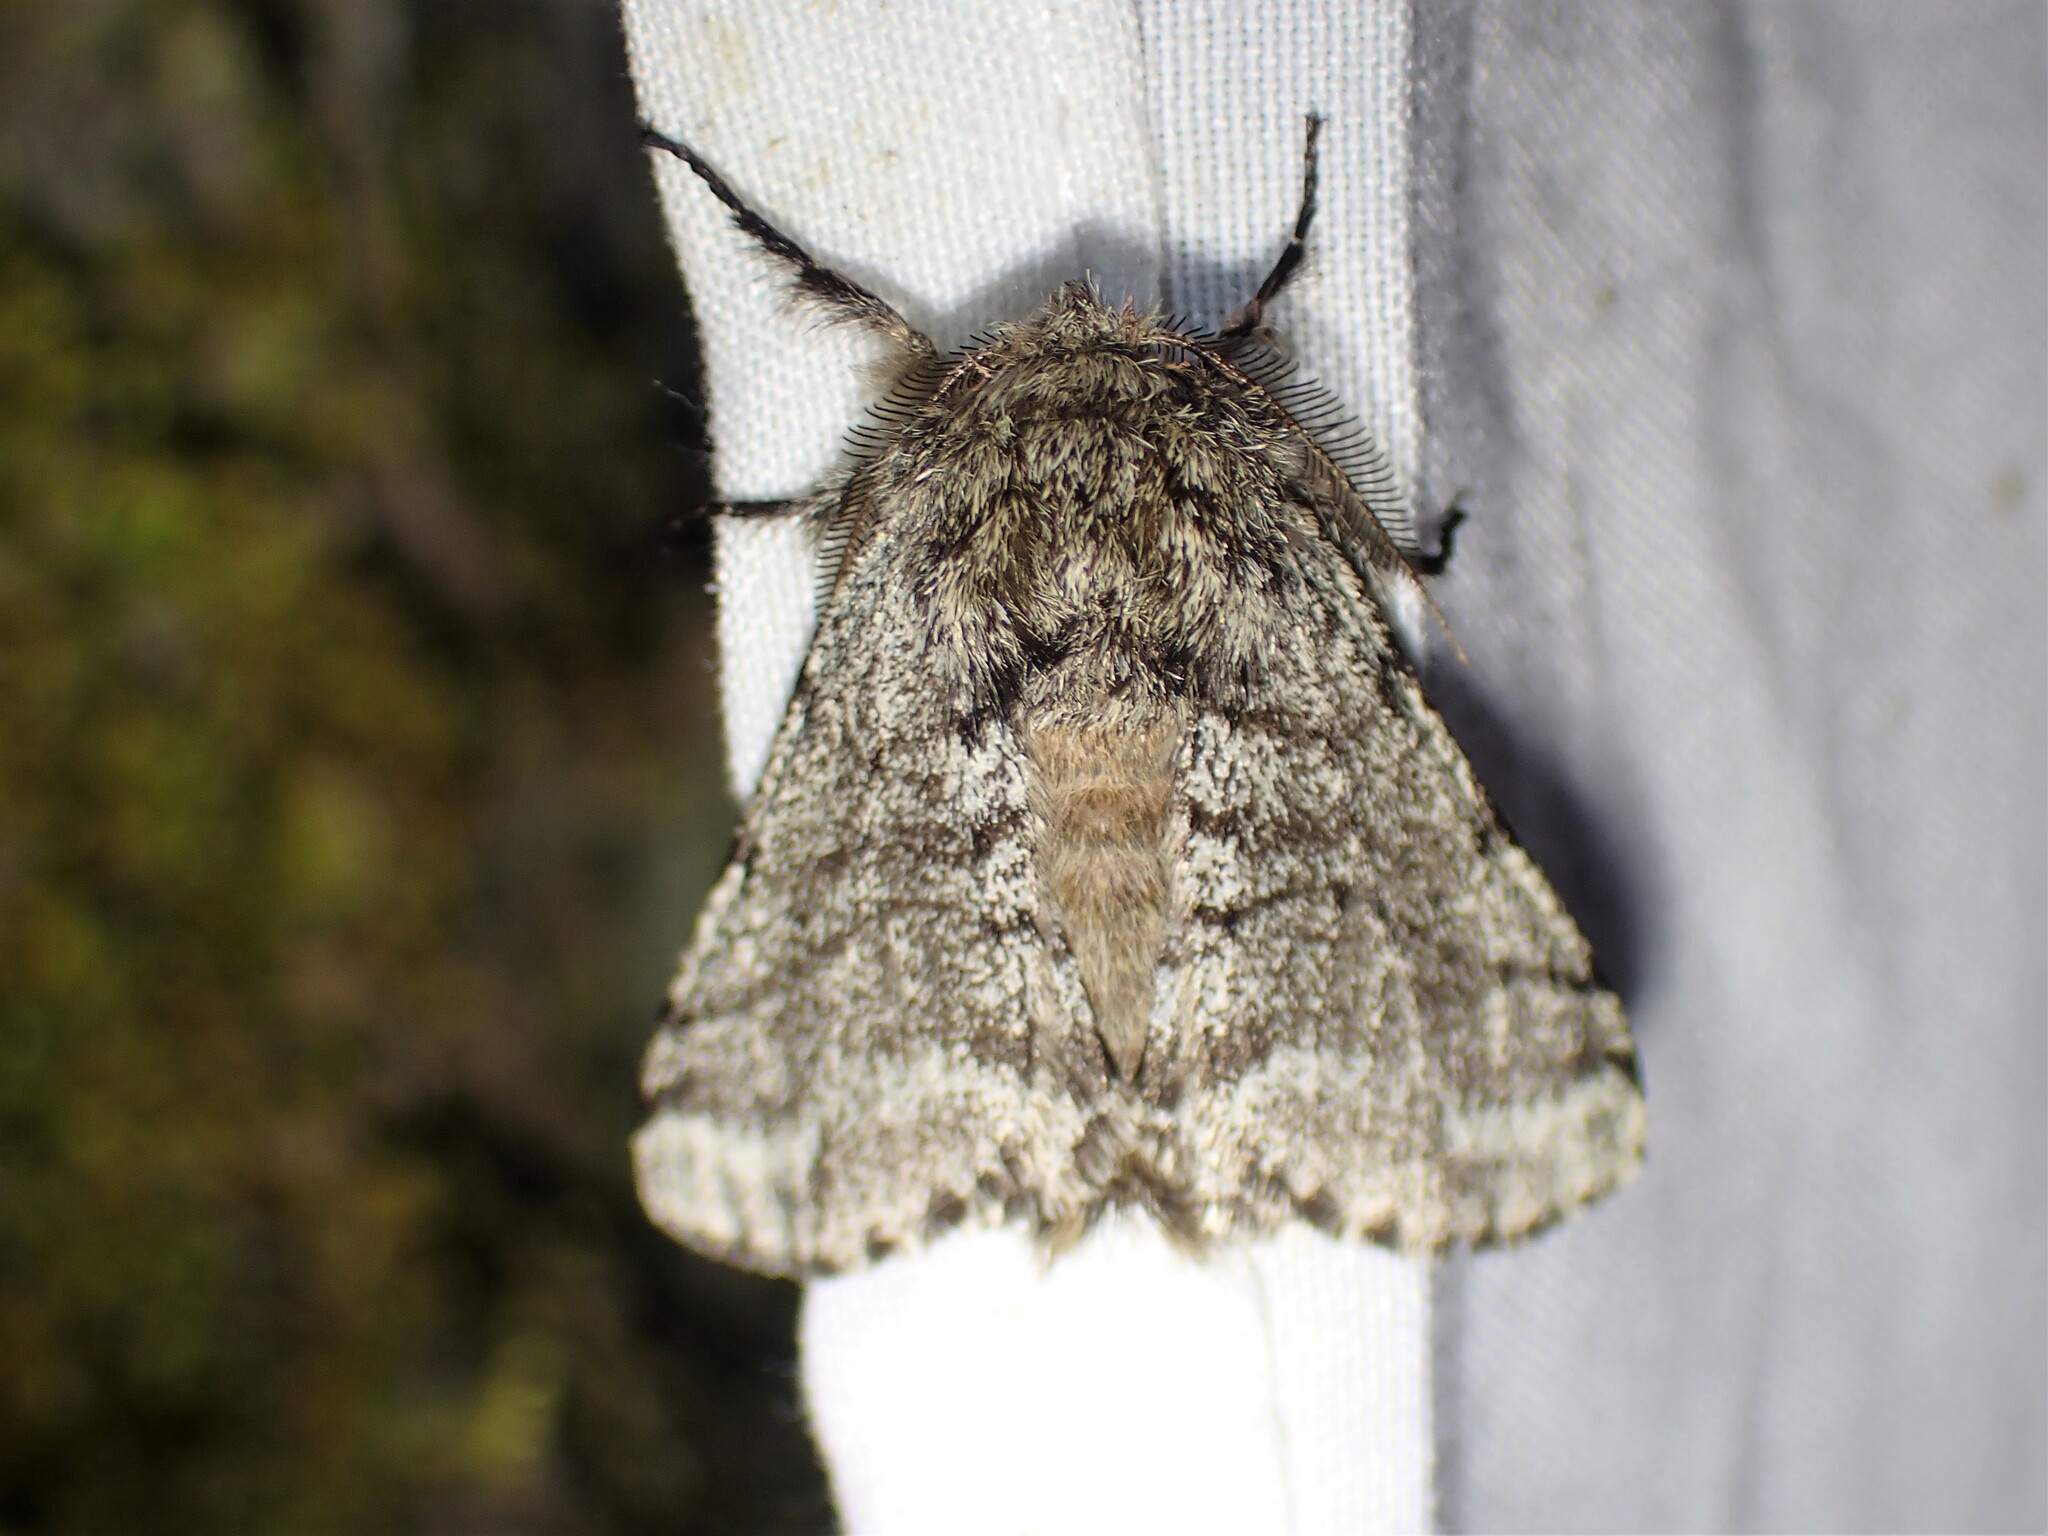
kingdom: Animalia
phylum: Arthropoda
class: Insecta
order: Lepidoptera
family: Geometridae
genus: Lycia
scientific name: Lycia ursaria
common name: Stout spanworm
